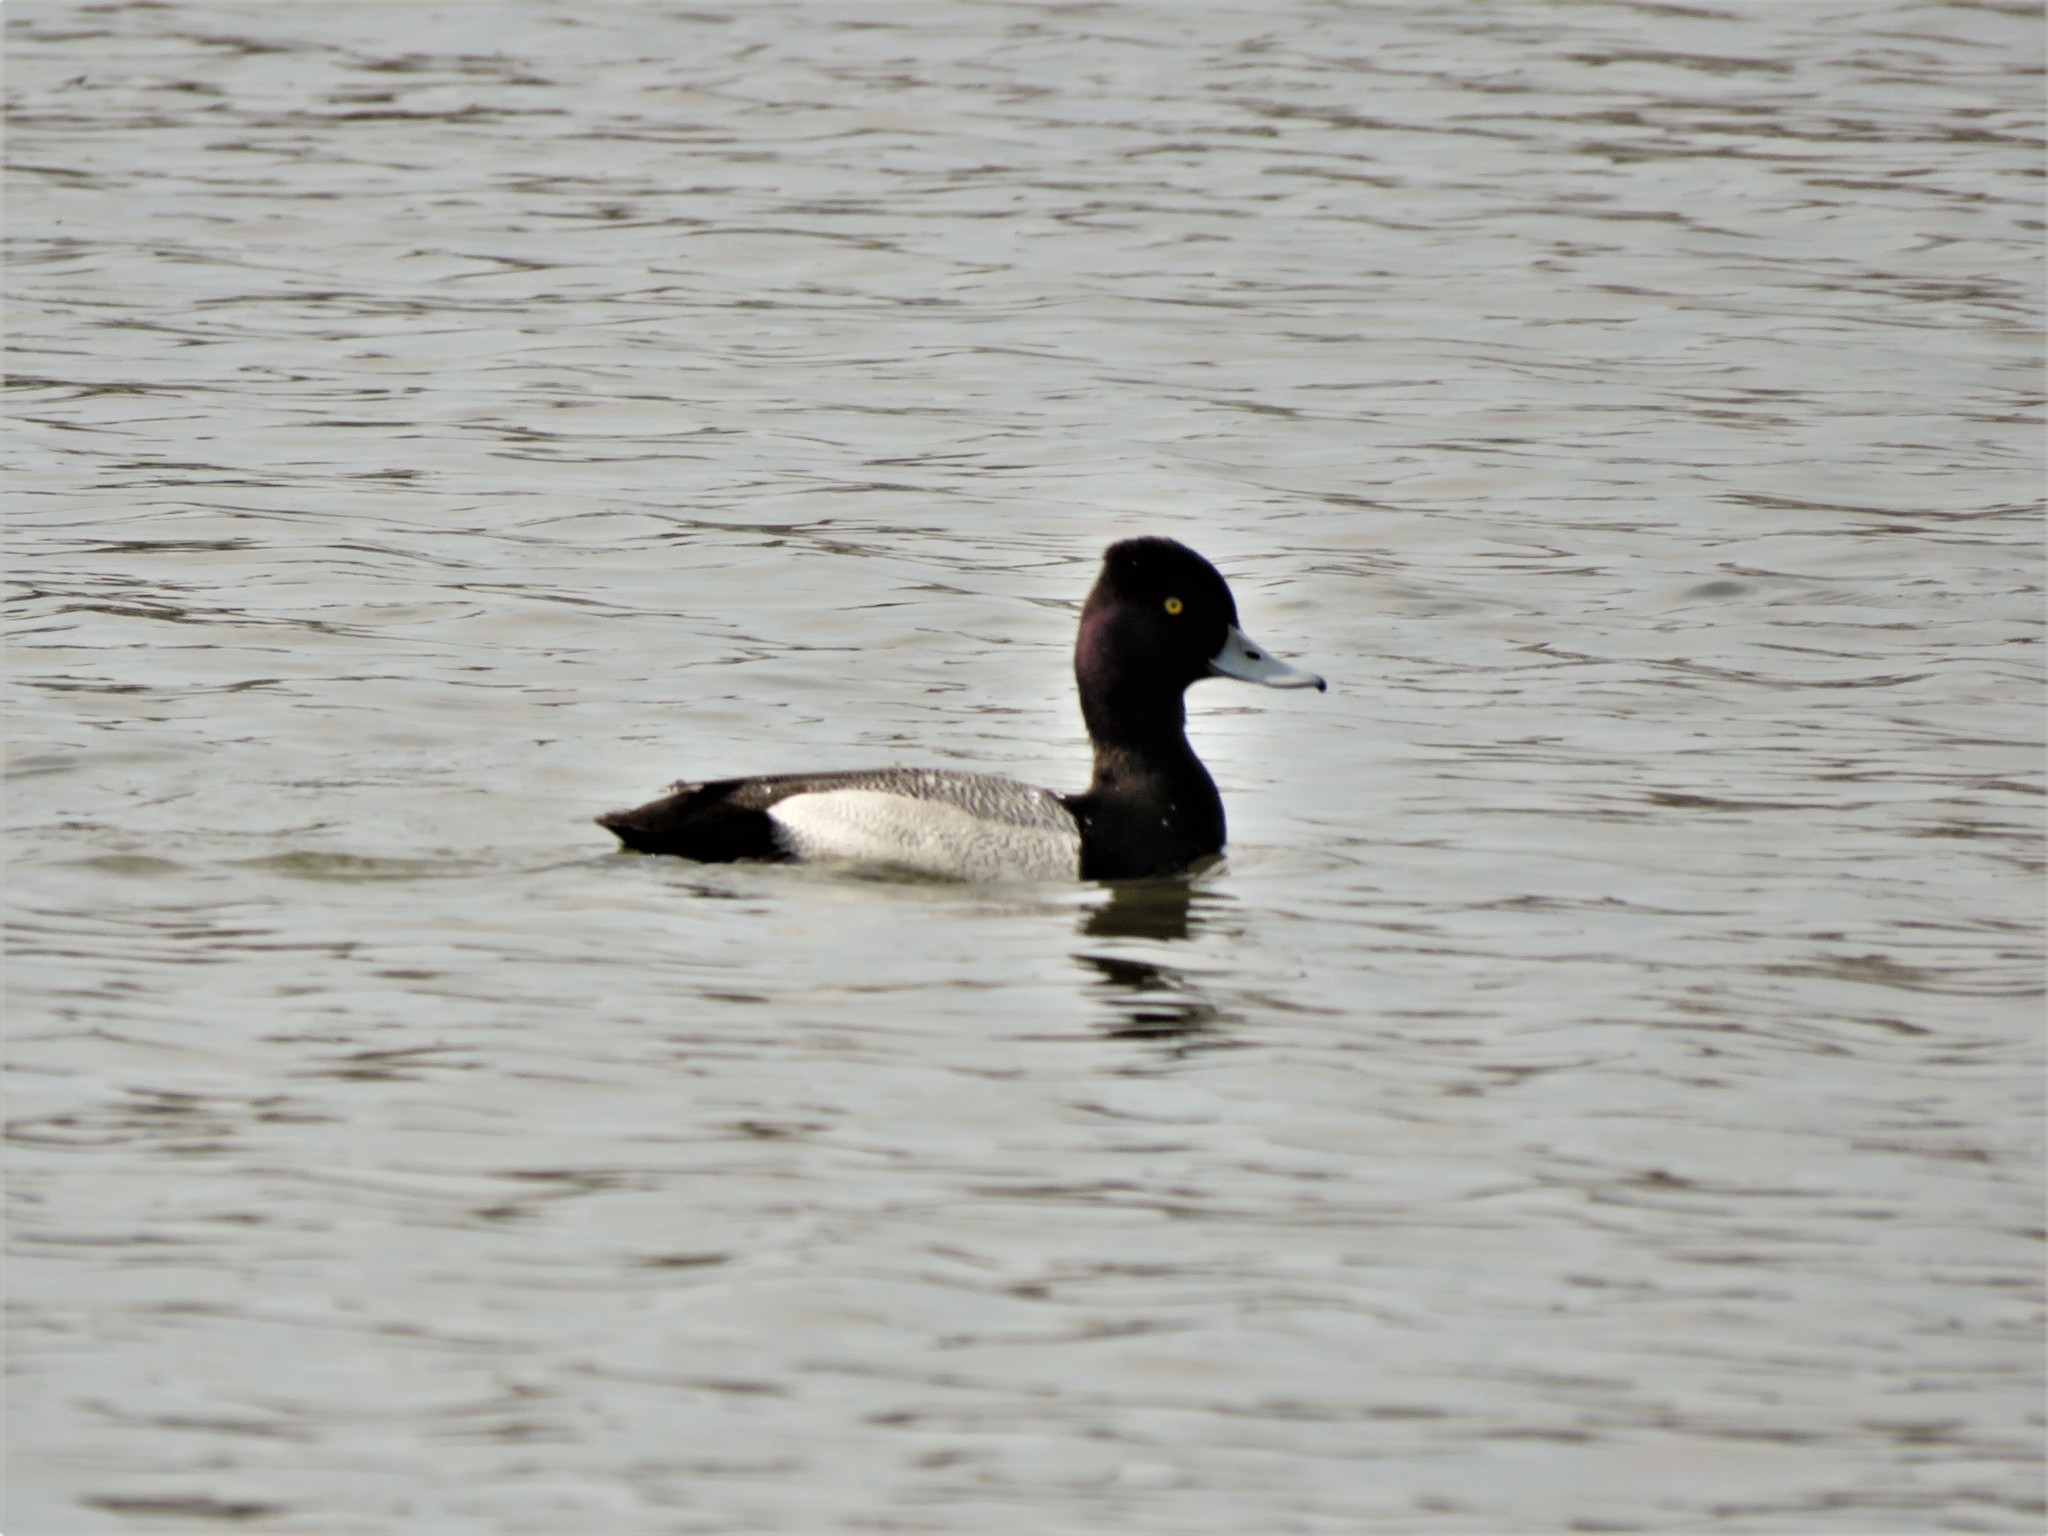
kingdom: Animalia
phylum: Chordata
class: Aves
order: Anseriformes
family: Anatidae
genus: Aythya
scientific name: Aythya affinis
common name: Lesser scaup
